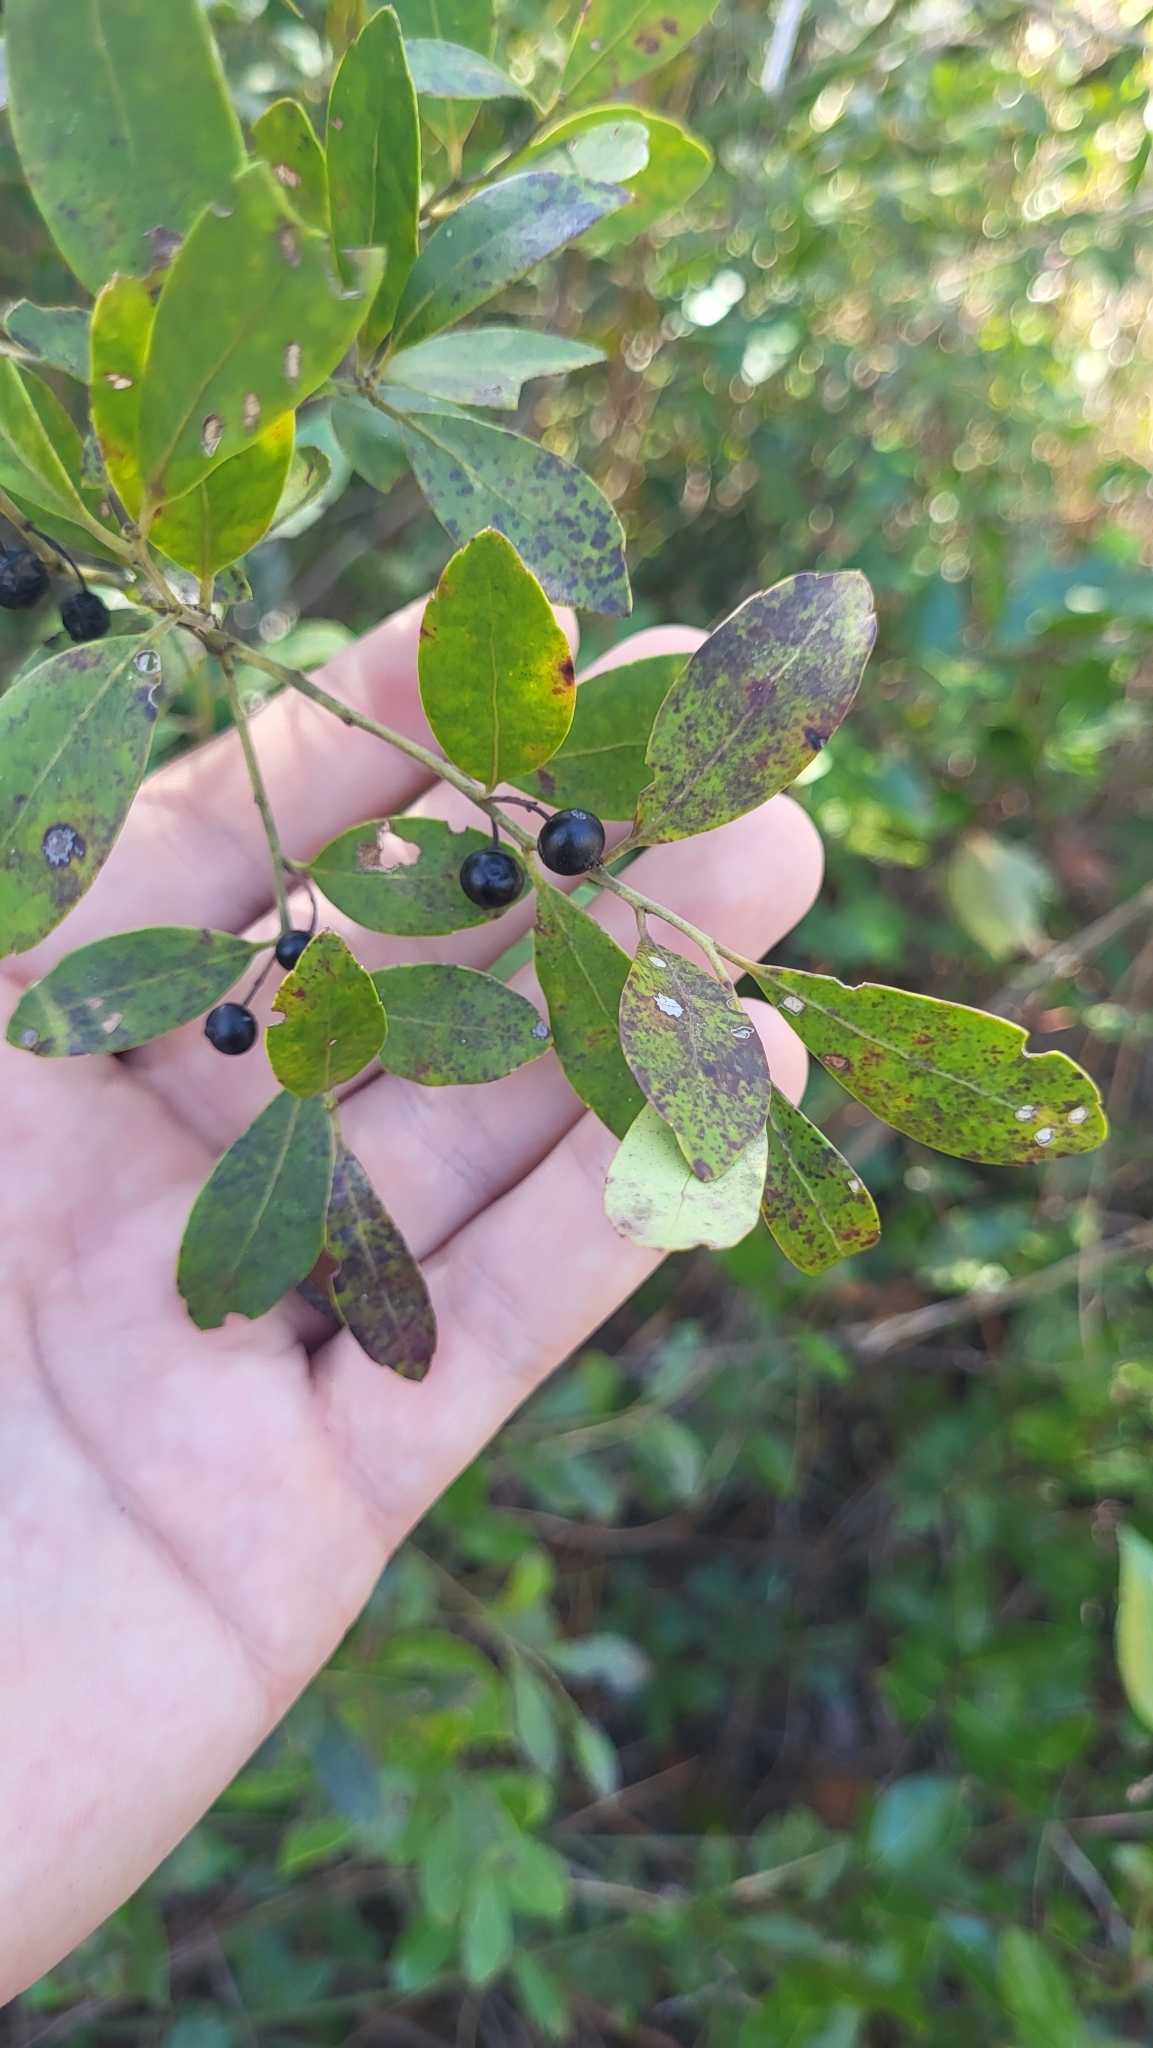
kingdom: Plantae
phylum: Tracheophyta
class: Magnoliopsida
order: Aquifoliales
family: Aquifoliaceae
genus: Ilex
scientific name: Ilex glabra
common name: Bitter gallberry
